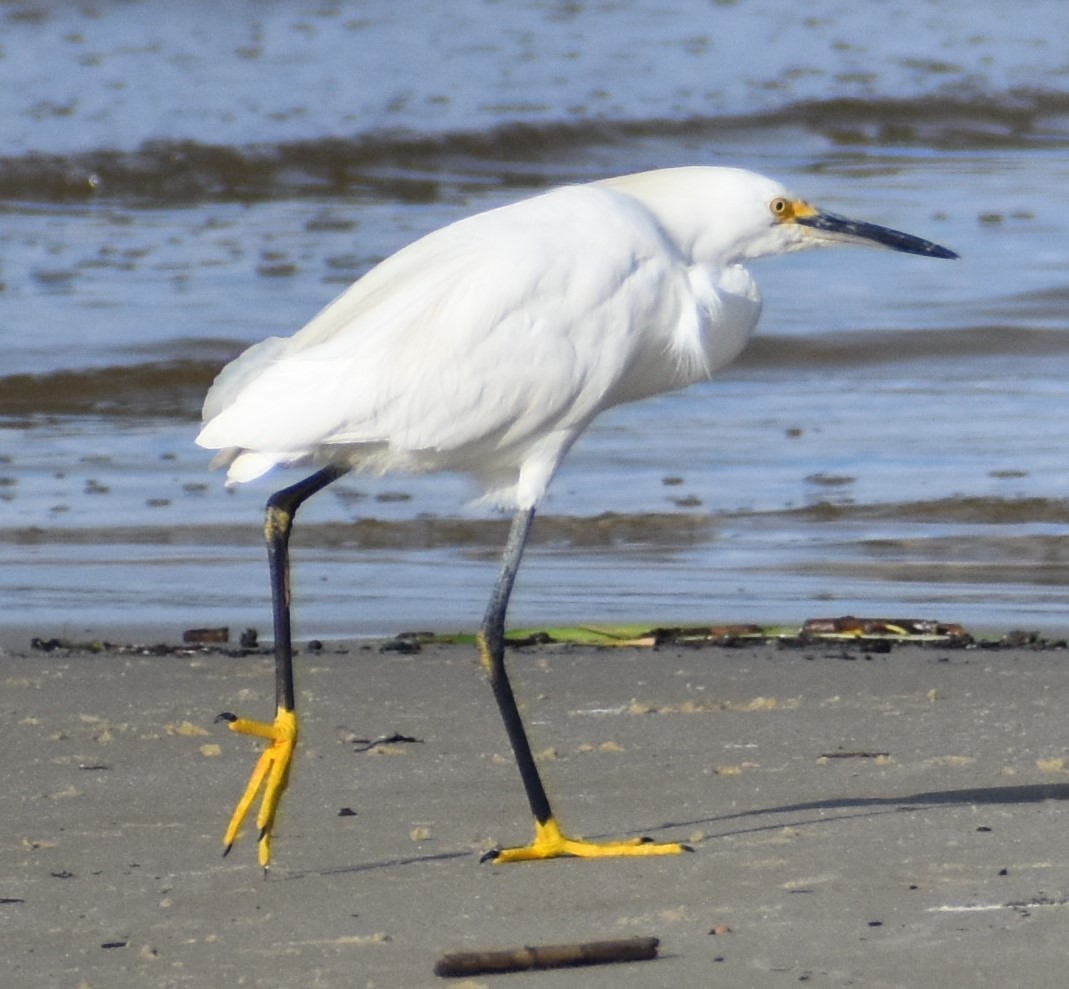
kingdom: Animalia
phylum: Chordata
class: Aves
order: Pelecaniformes
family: Ardeidae
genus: Egretta
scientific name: Egretta thula
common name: Snowy egret
